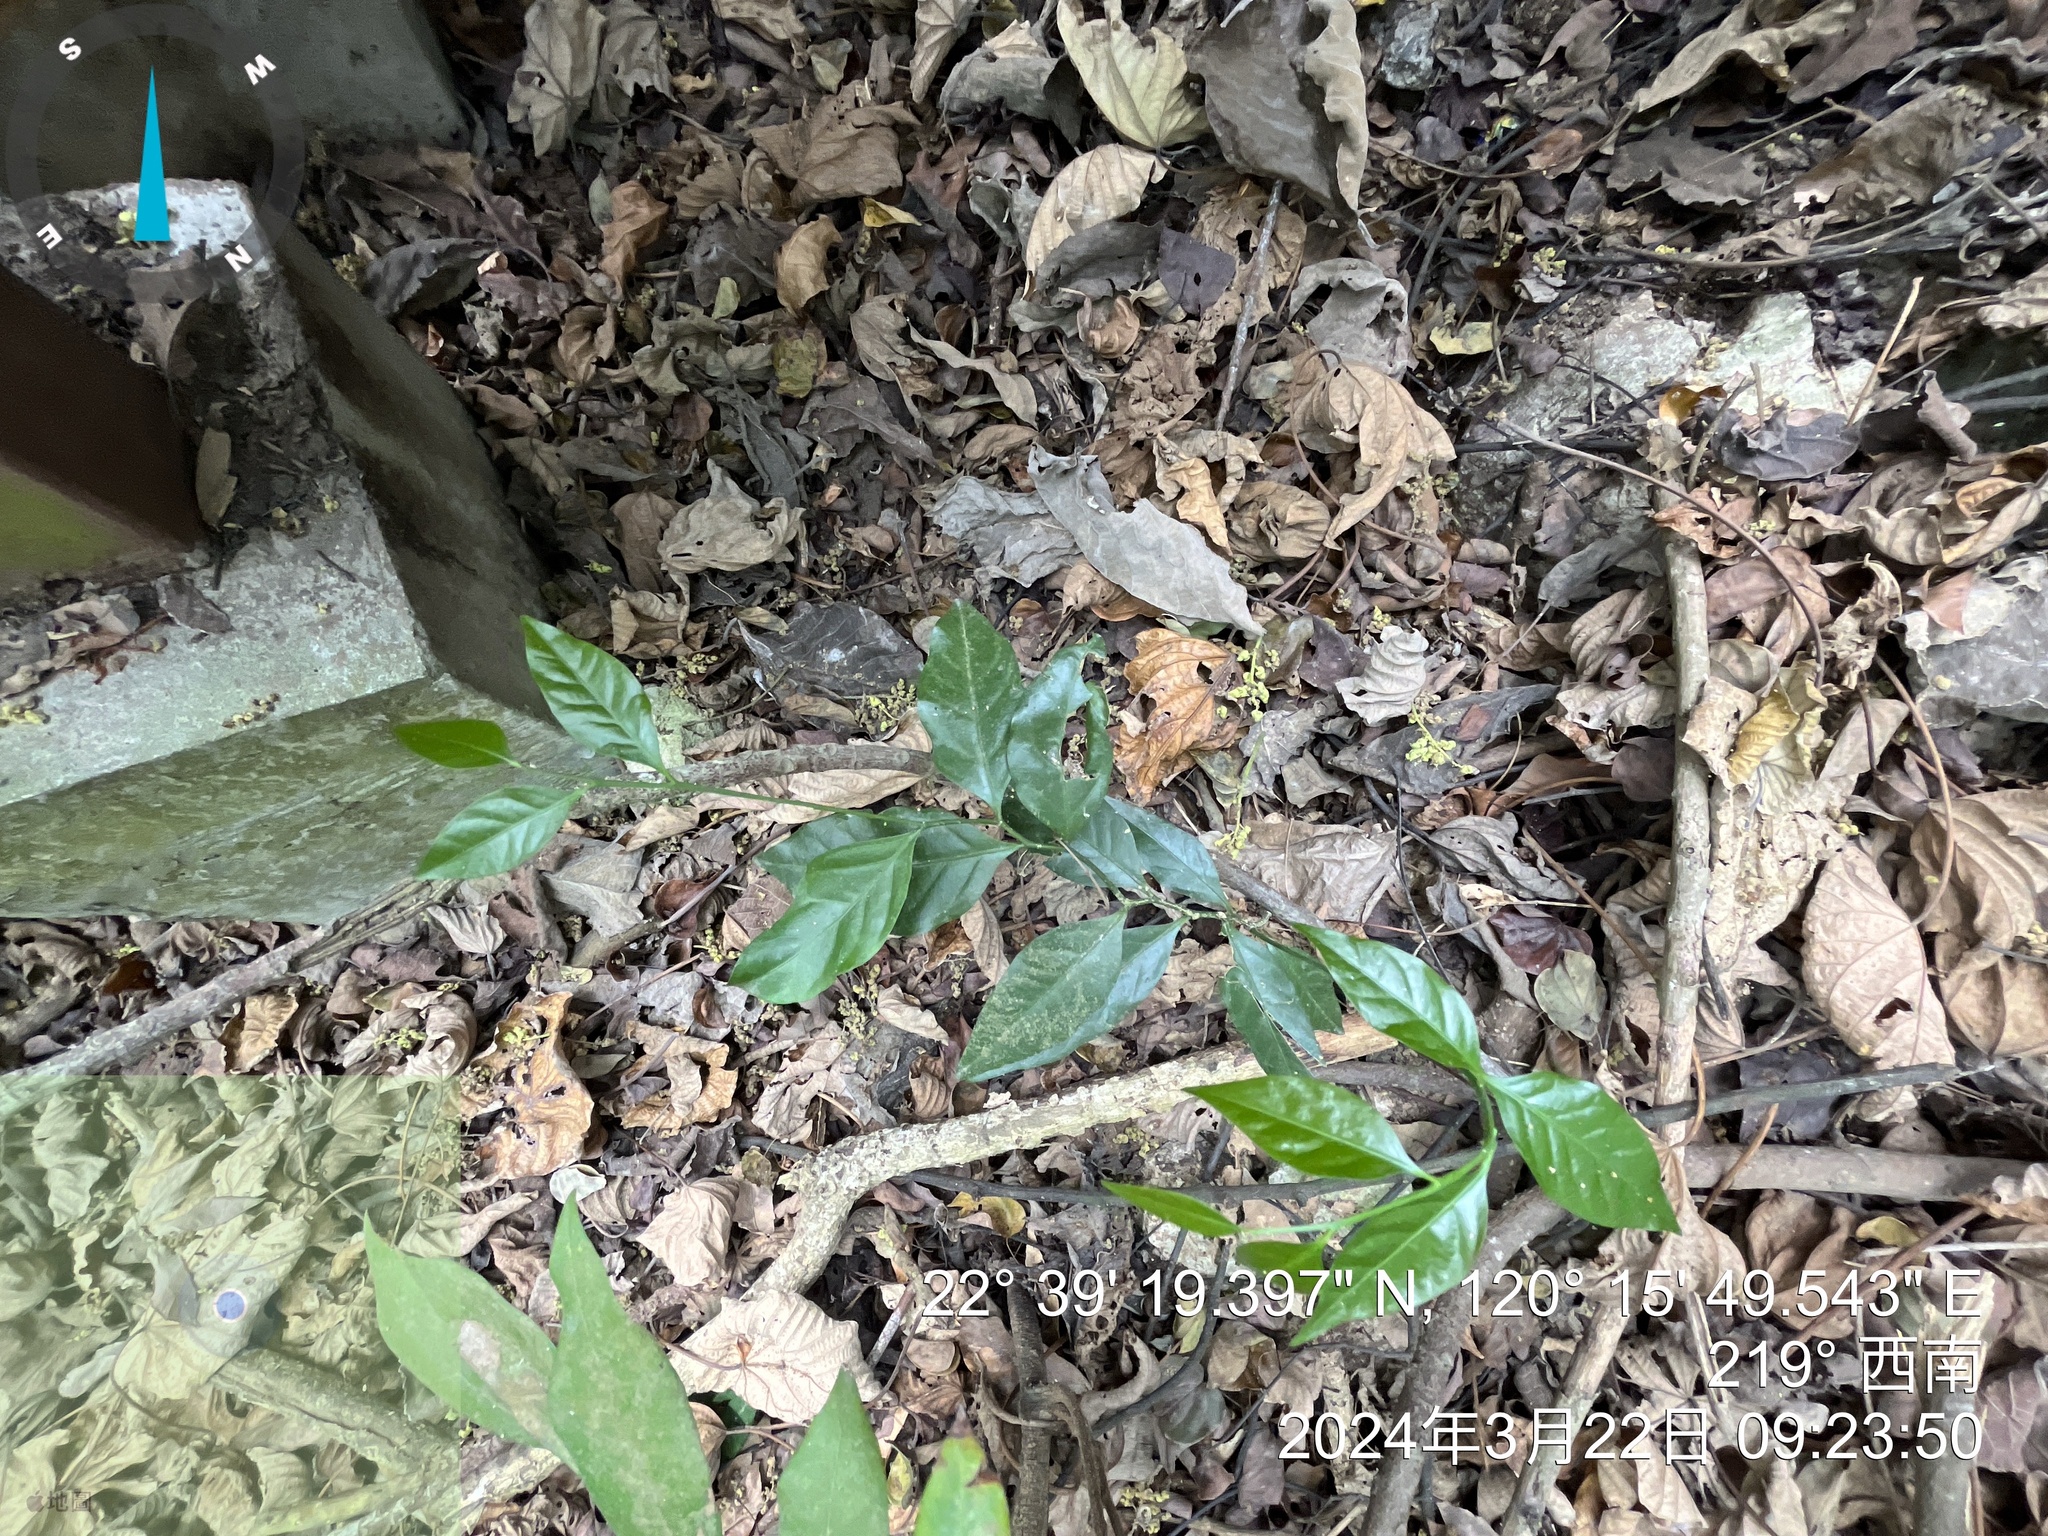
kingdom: Plantae
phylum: Tracheophyta
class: Magnoliopsida
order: Santalales
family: Opiliaceae
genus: Champereia
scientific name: Champereia manillana
